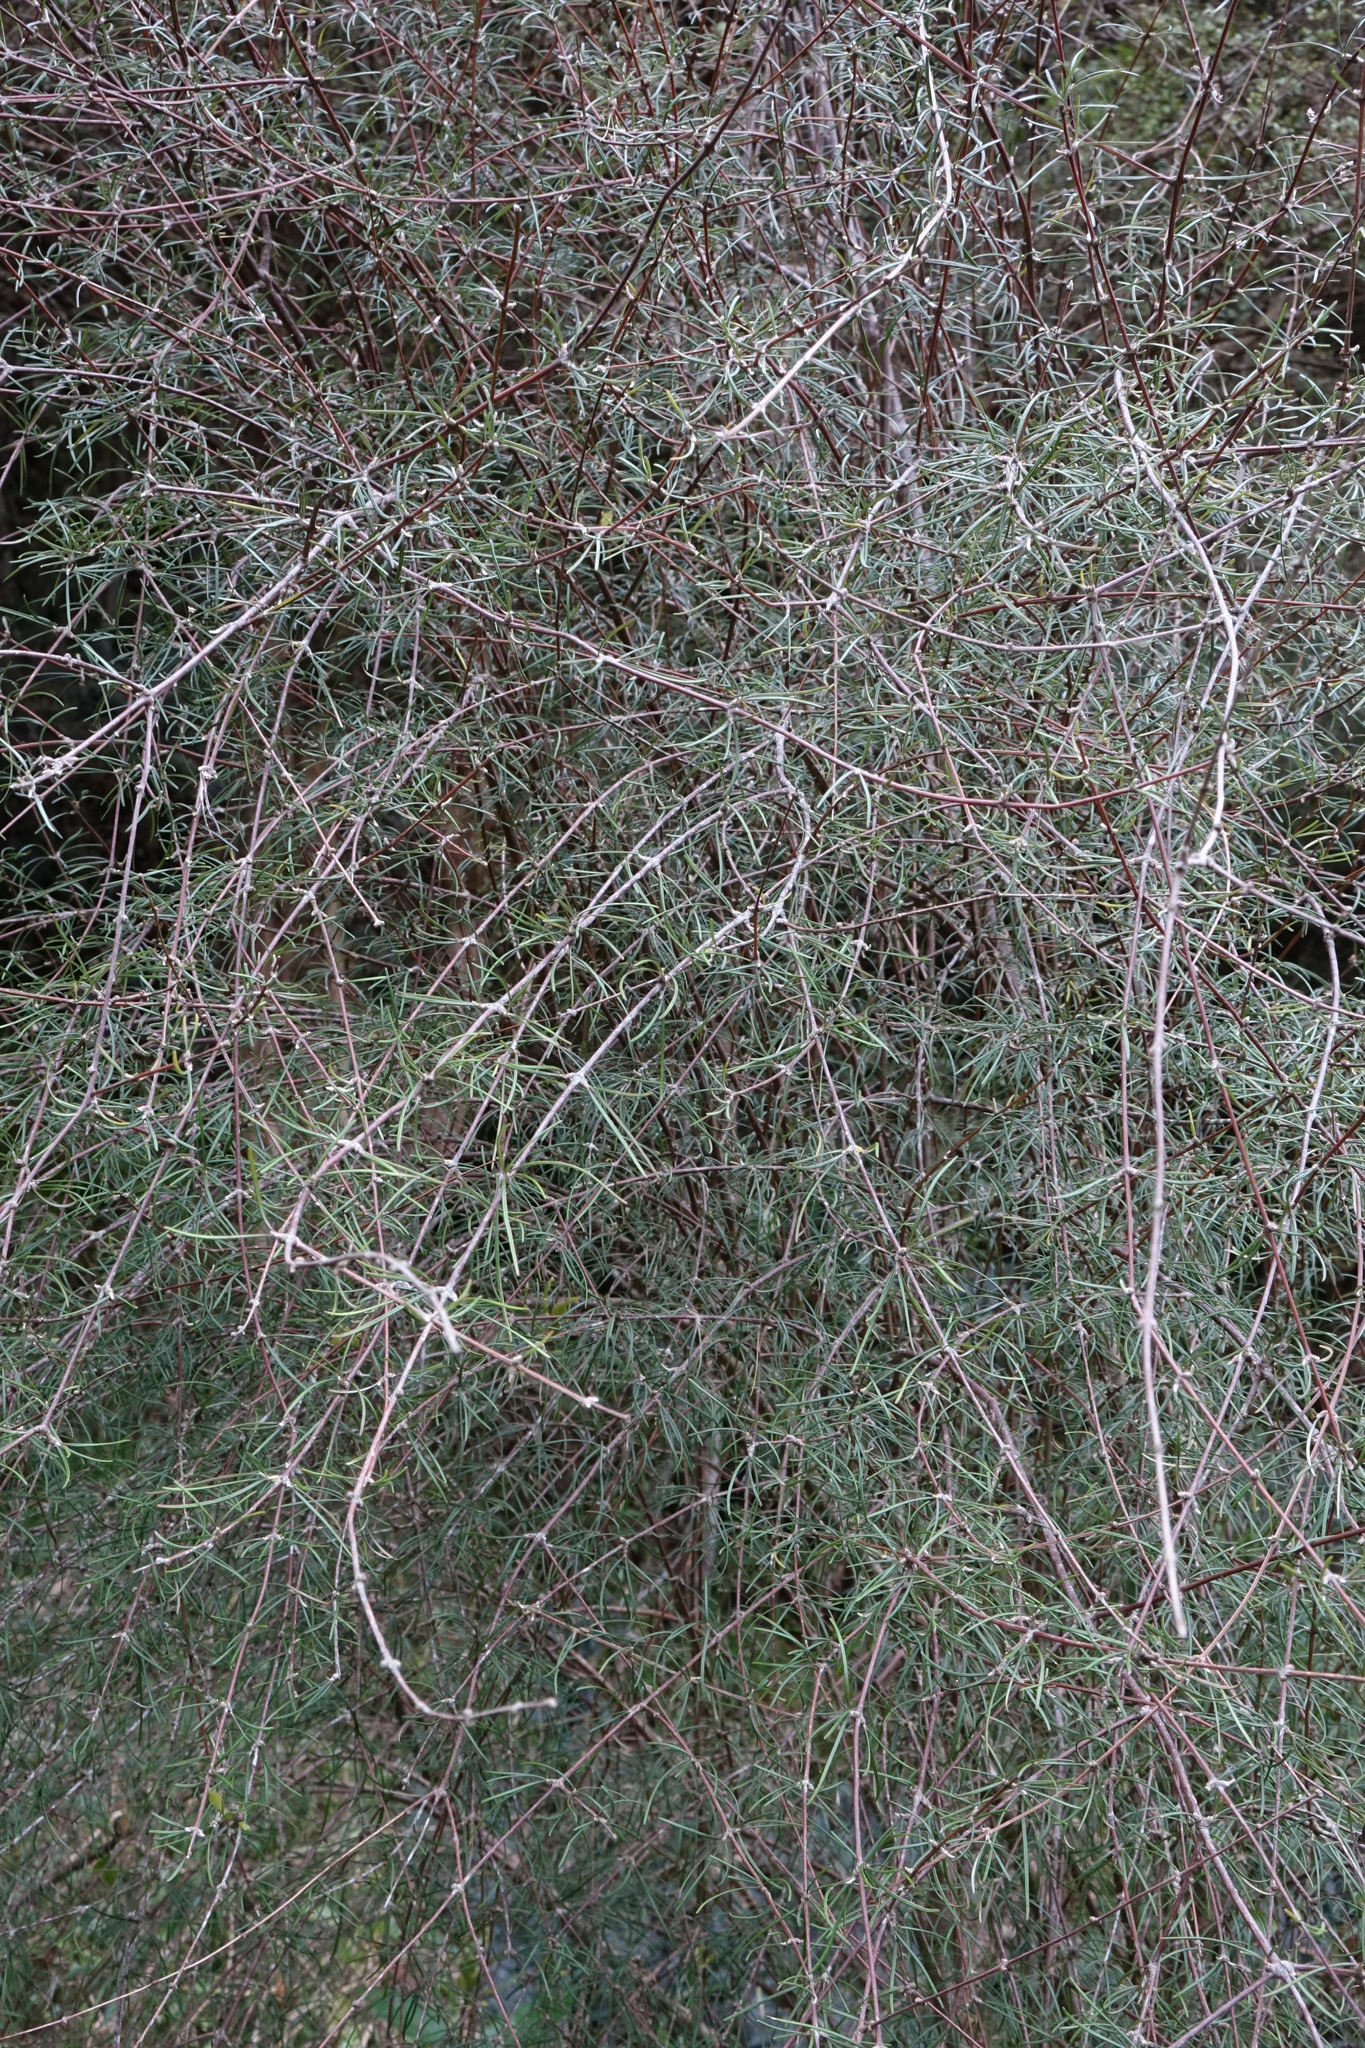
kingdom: Plantae
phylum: Tracheophyta
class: Magnoliopsida
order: Asterales
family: Asteraceae
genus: Olearia
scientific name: Olearia lineata
